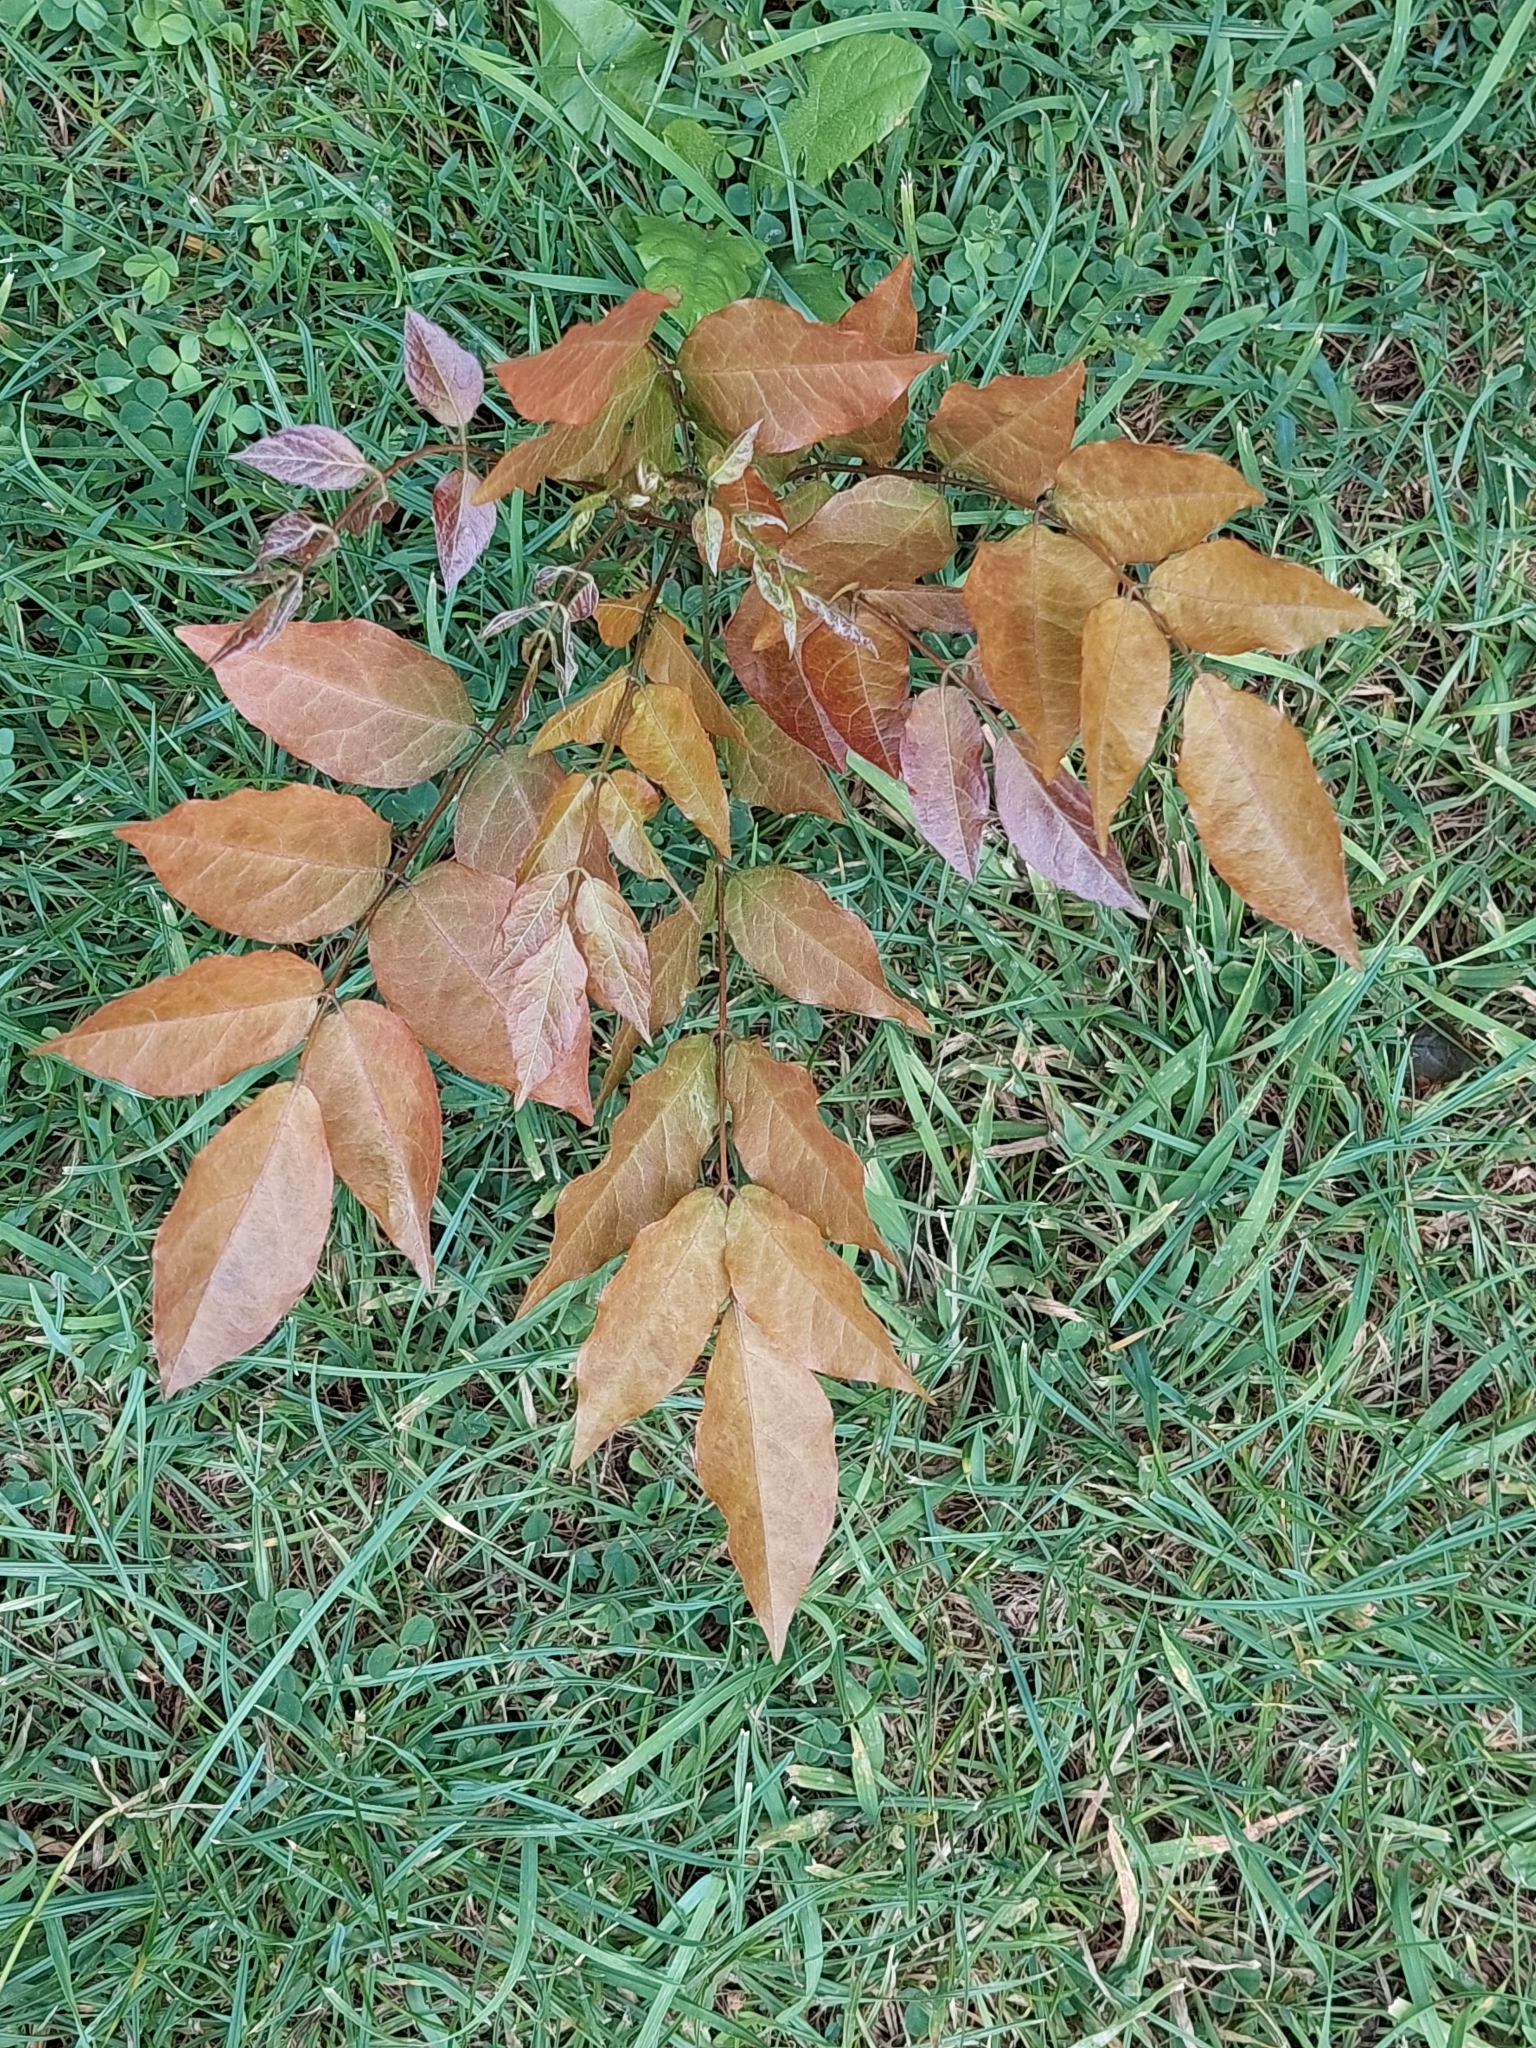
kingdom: Plantae
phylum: Tracheophyta
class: Magnoliopsida
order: Lamiales
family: Oleaceae
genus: Fraxinus
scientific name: Fraxinus excelsior
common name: European ash
